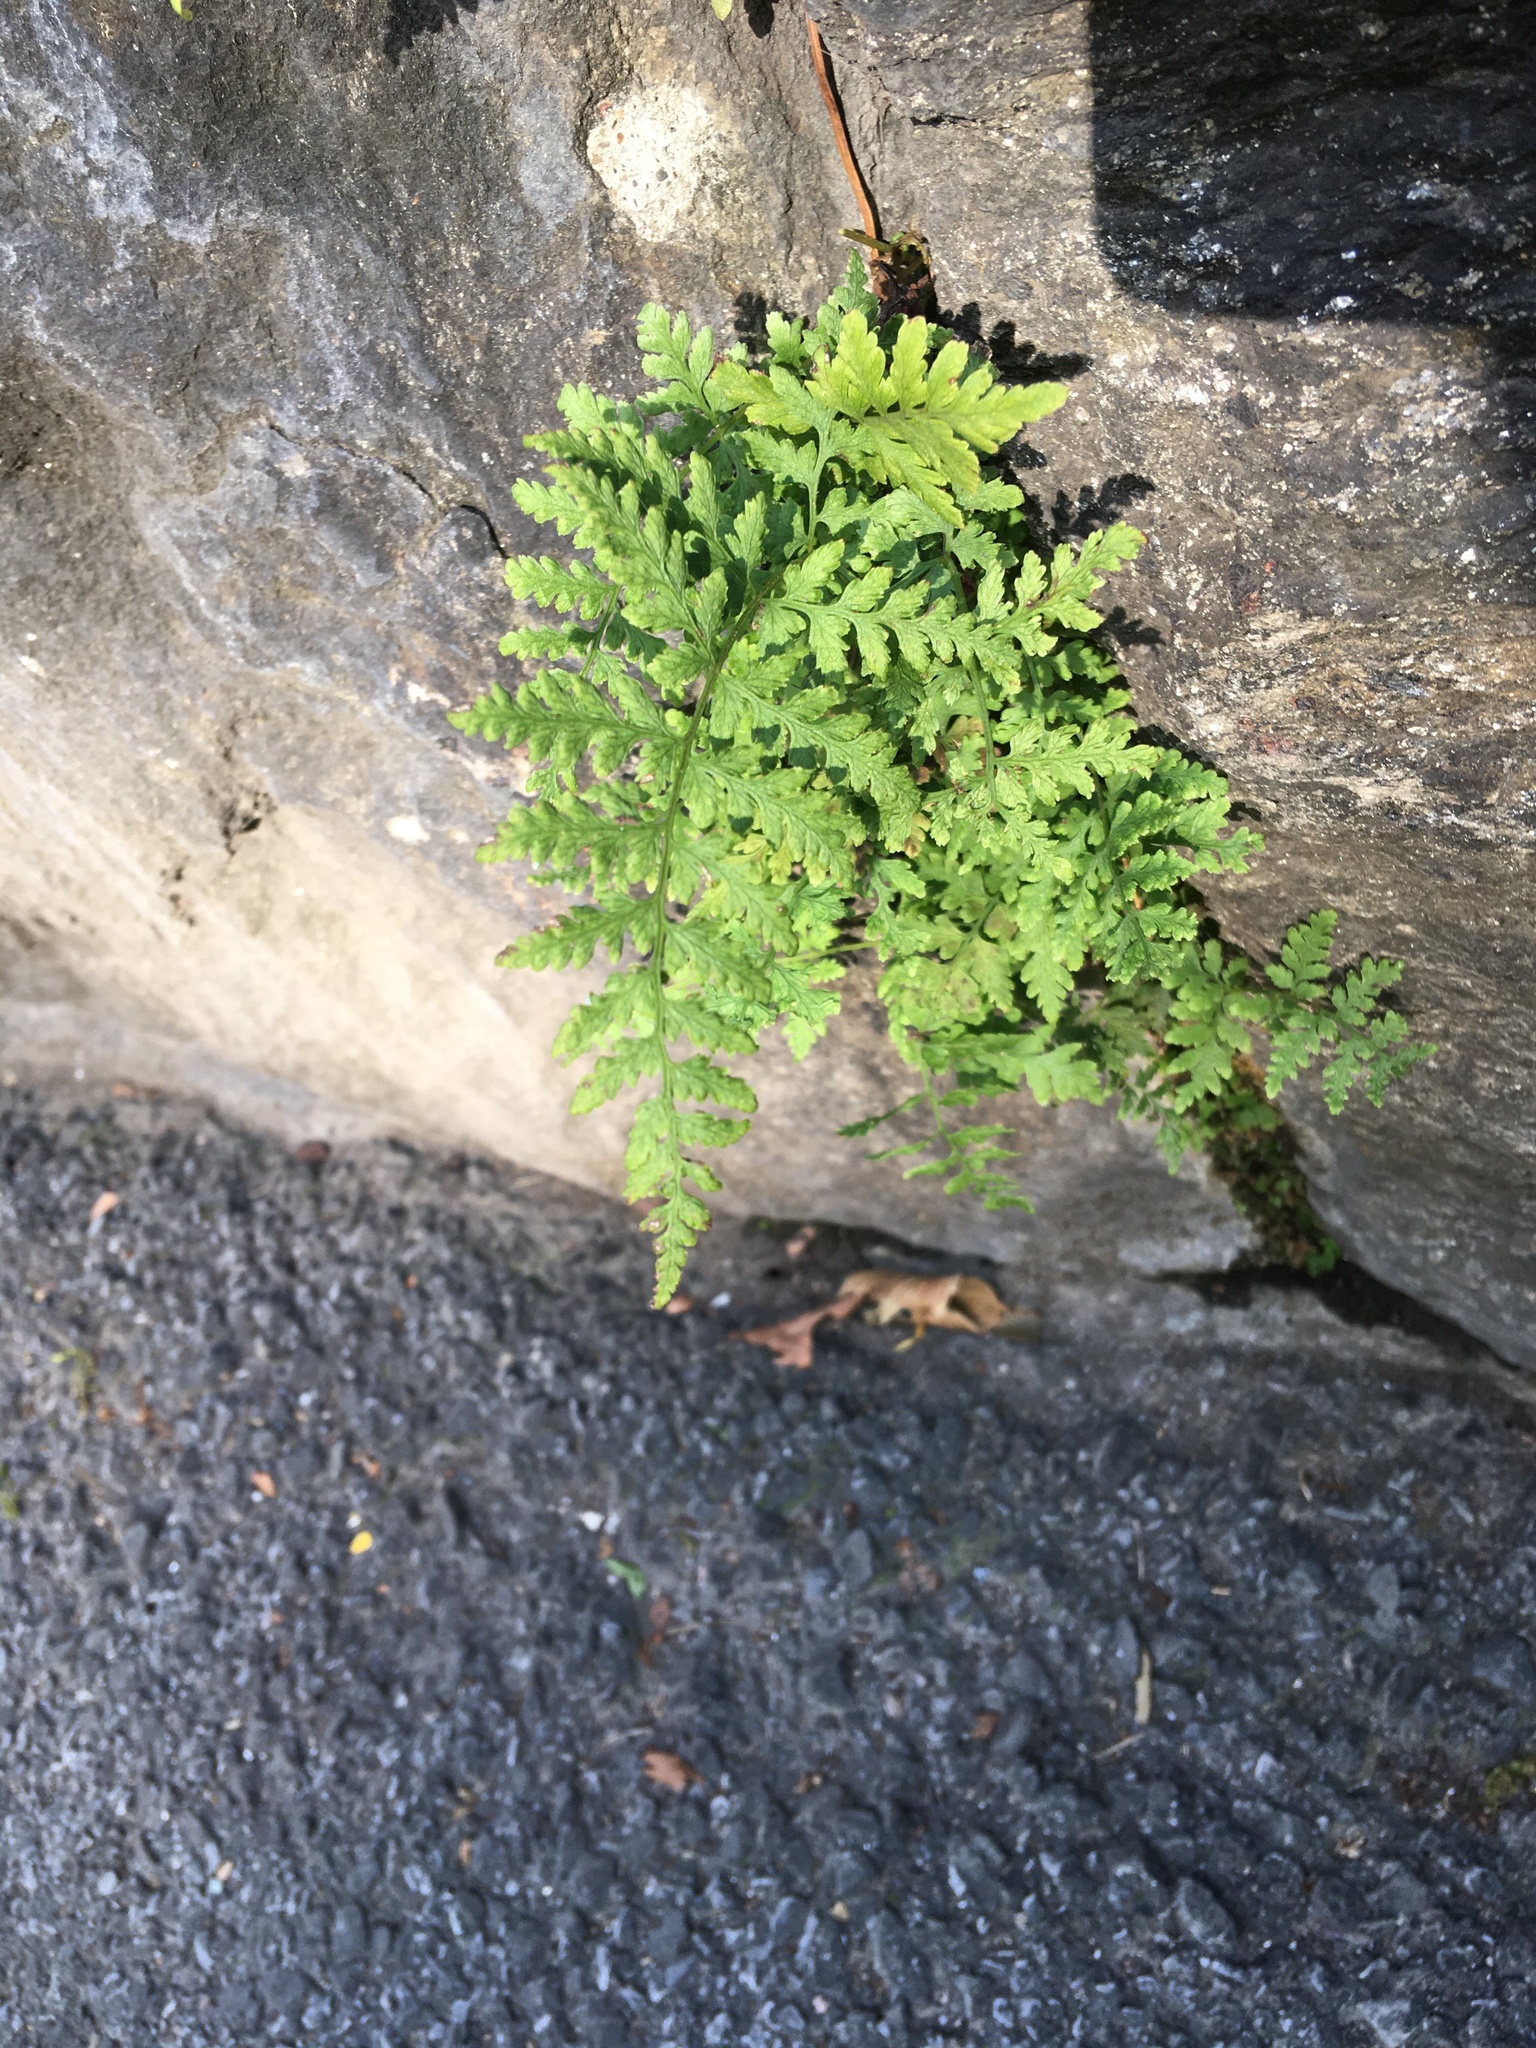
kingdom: Plantae
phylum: Tracheophyta
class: Polypodiopsida
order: Polypodiales
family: Woodsiaceae
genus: Physematium
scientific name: Physematium obtusum
